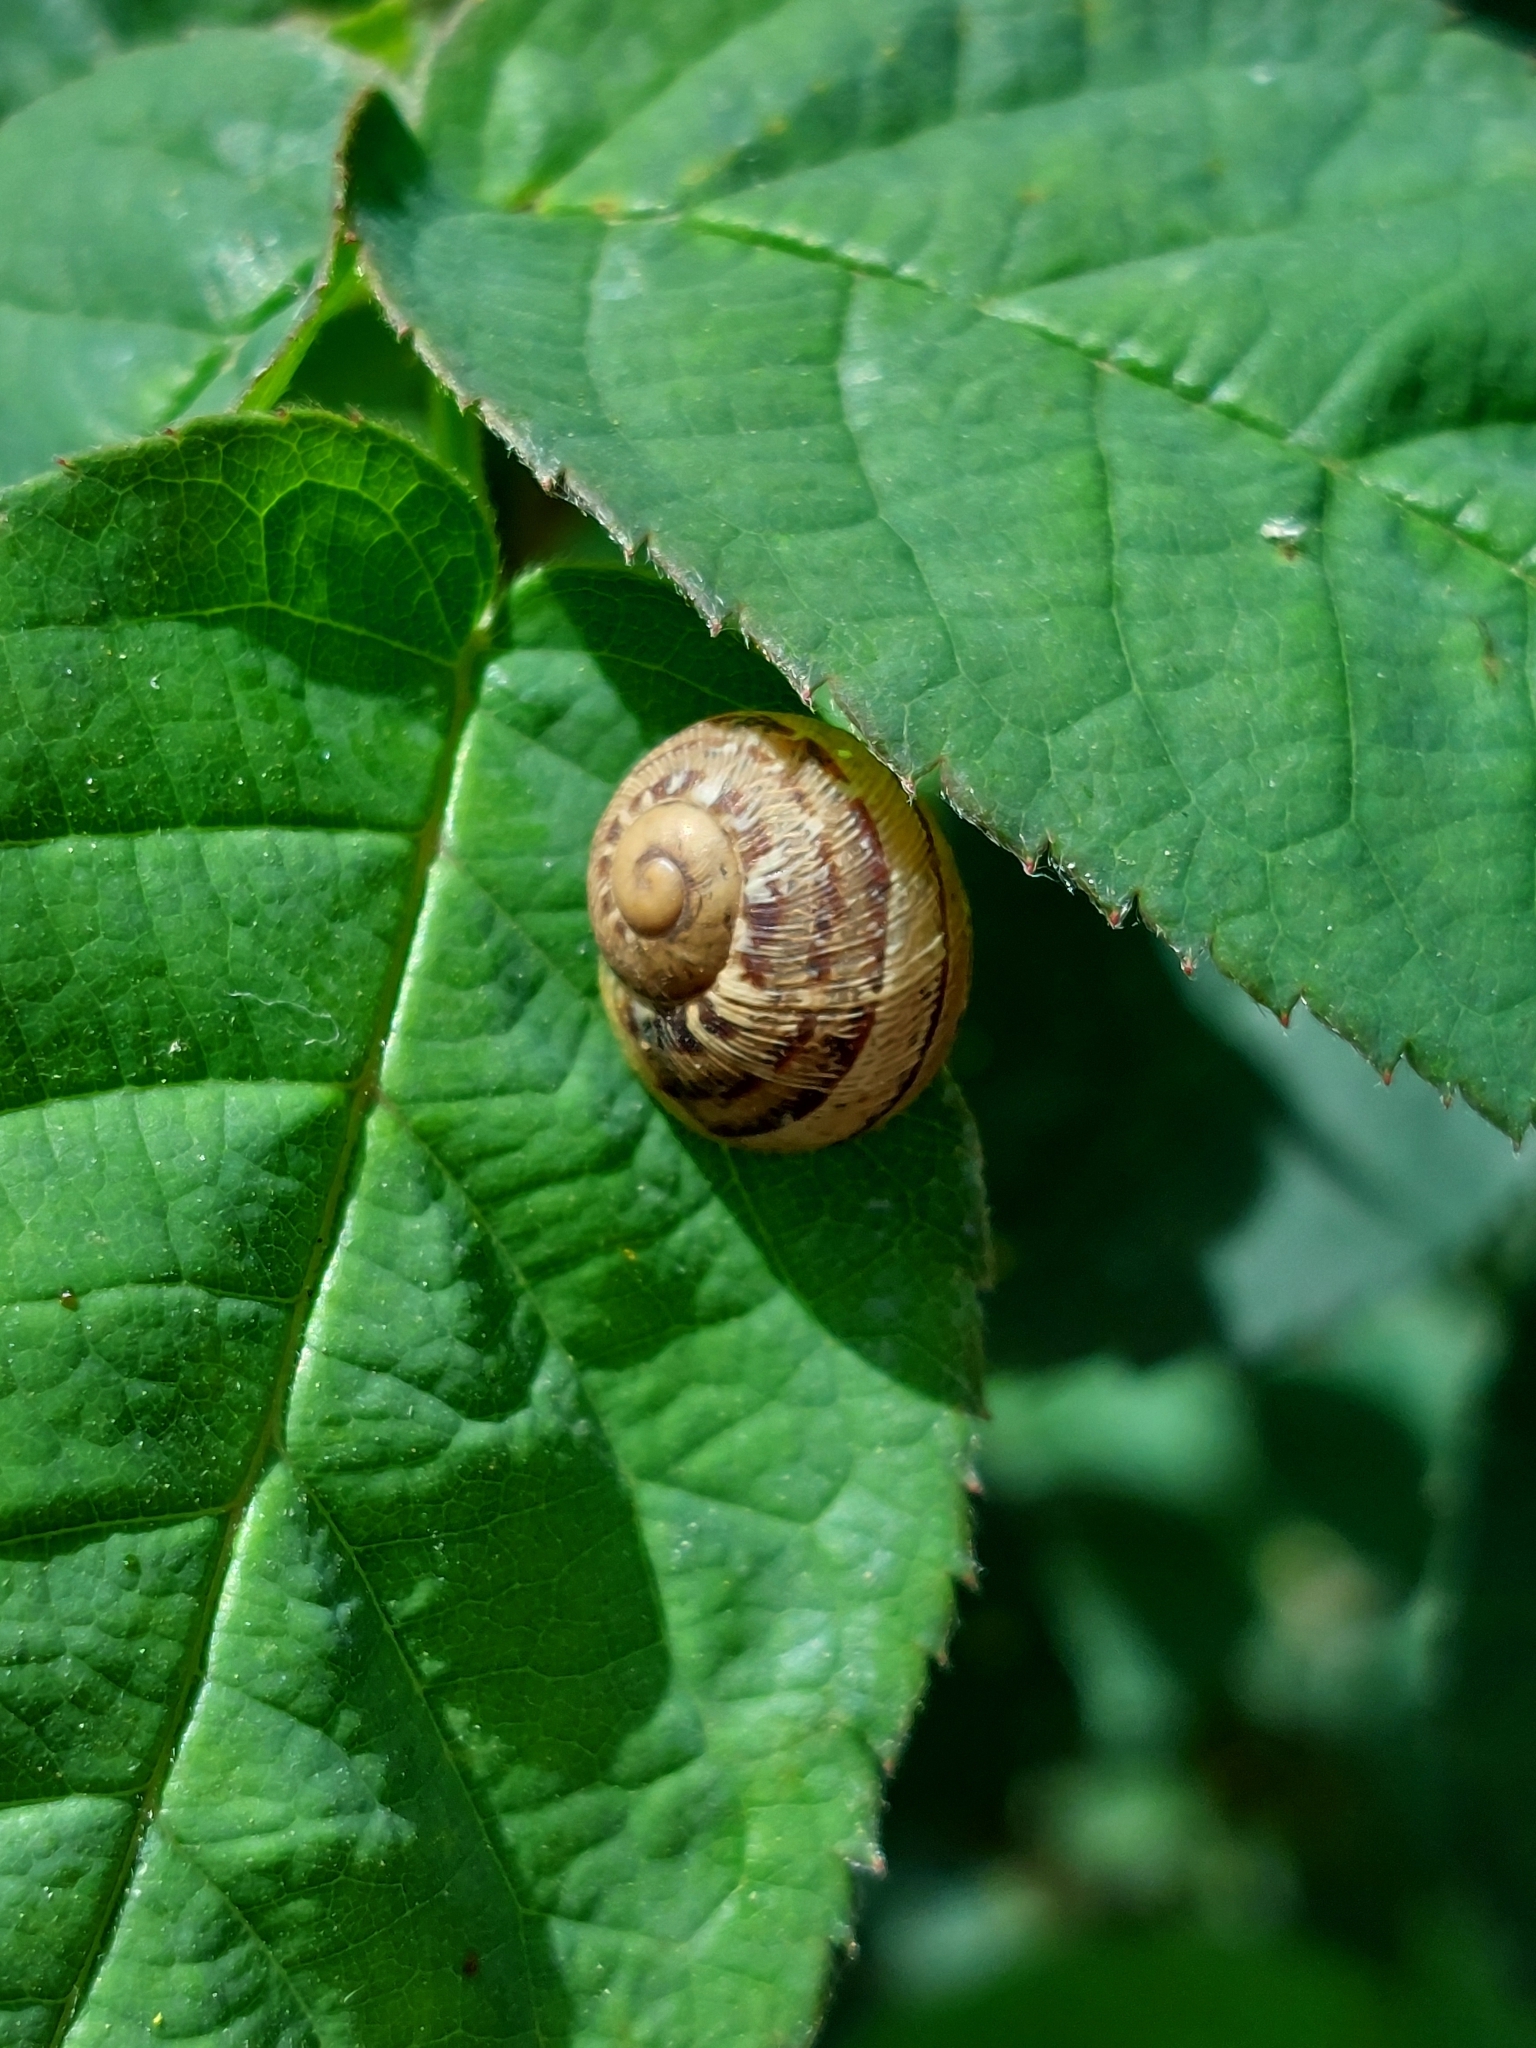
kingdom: Animalia
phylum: Mollusca
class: Gastropoda
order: Stylommatophora
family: Helicidae
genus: Cornu
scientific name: Cornu aspersum
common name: Brown garden snail
